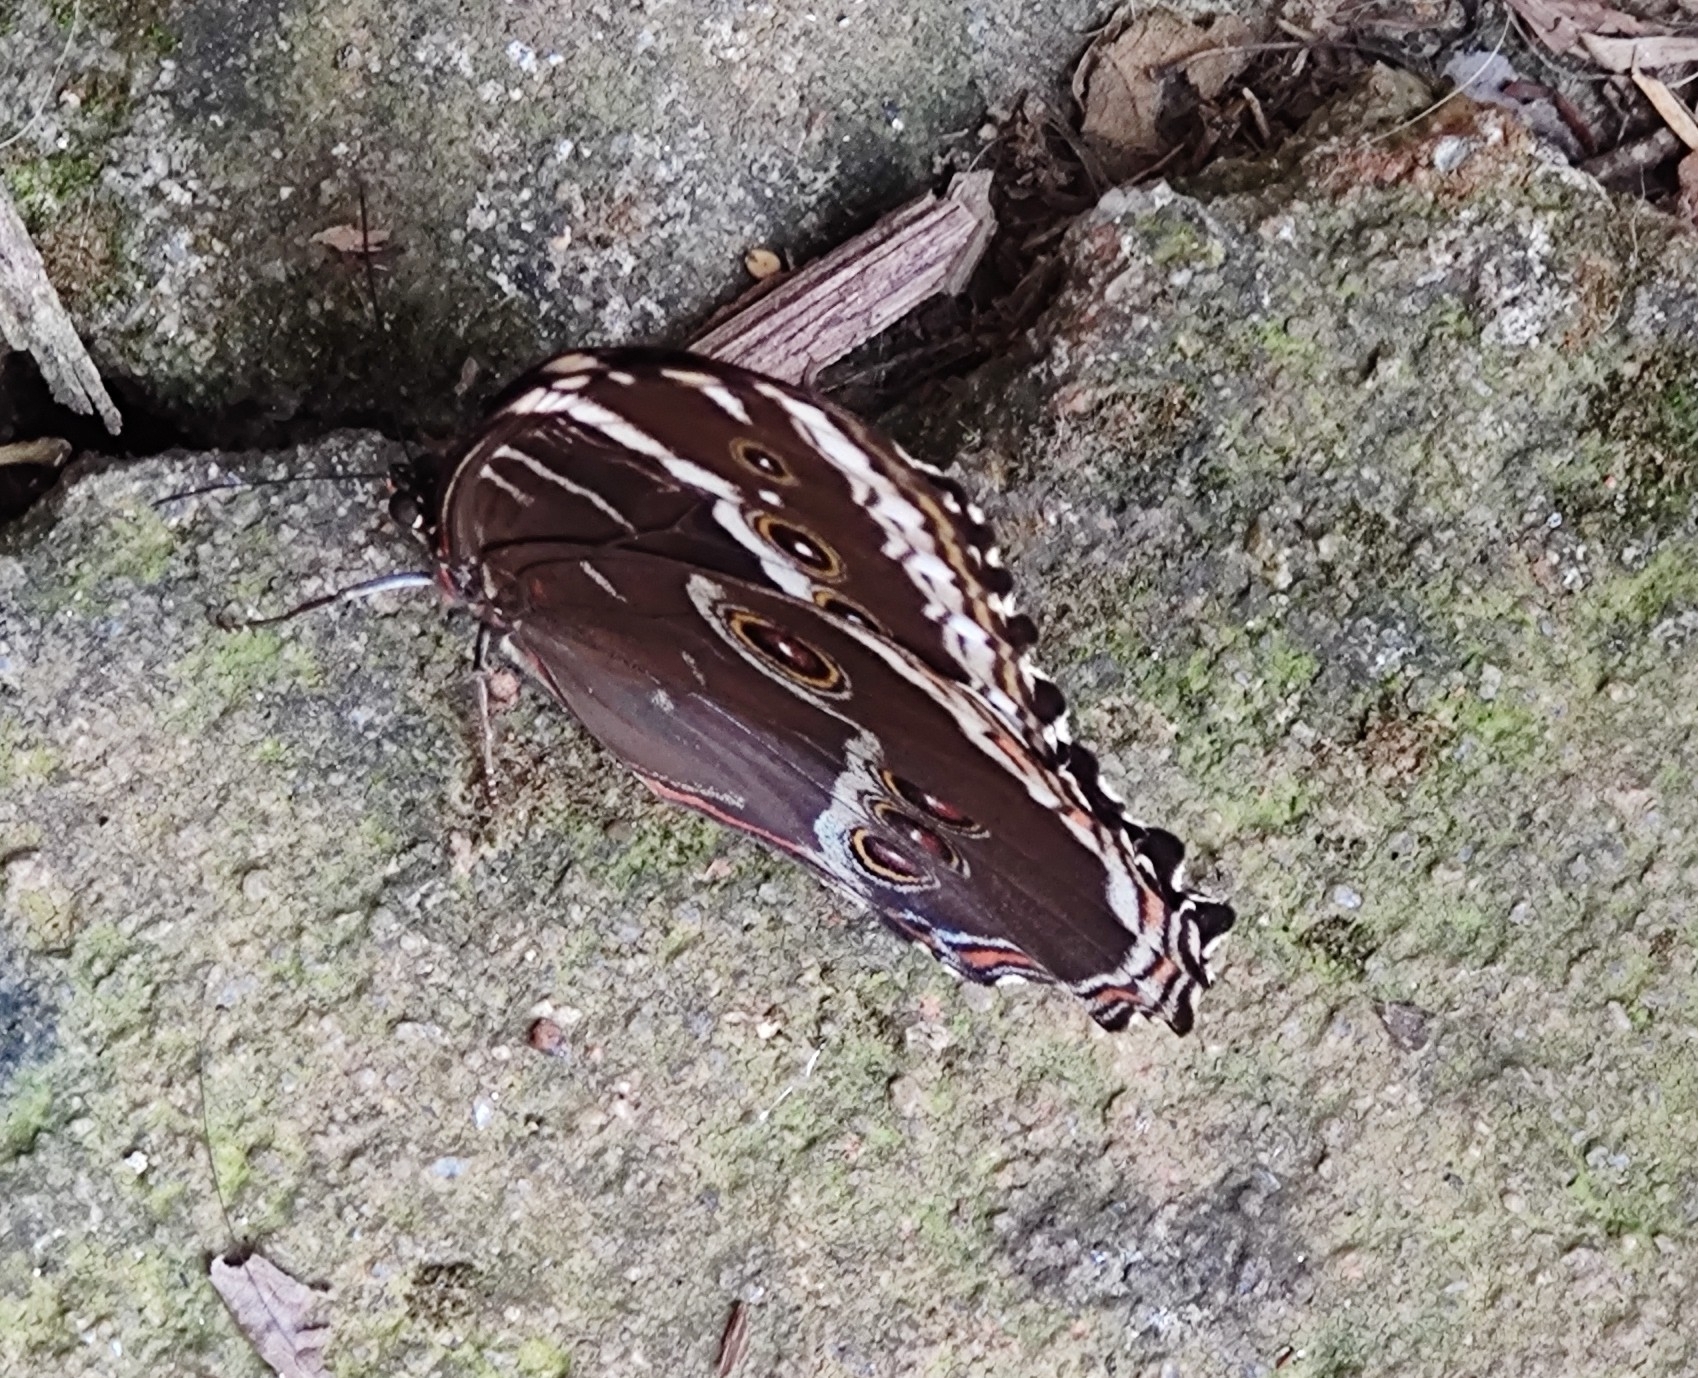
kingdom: Animalia
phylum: Arthropoda
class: Insecta
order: Lepidoptera
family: Nymphalidae
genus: Morpho
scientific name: Morpho helenor
